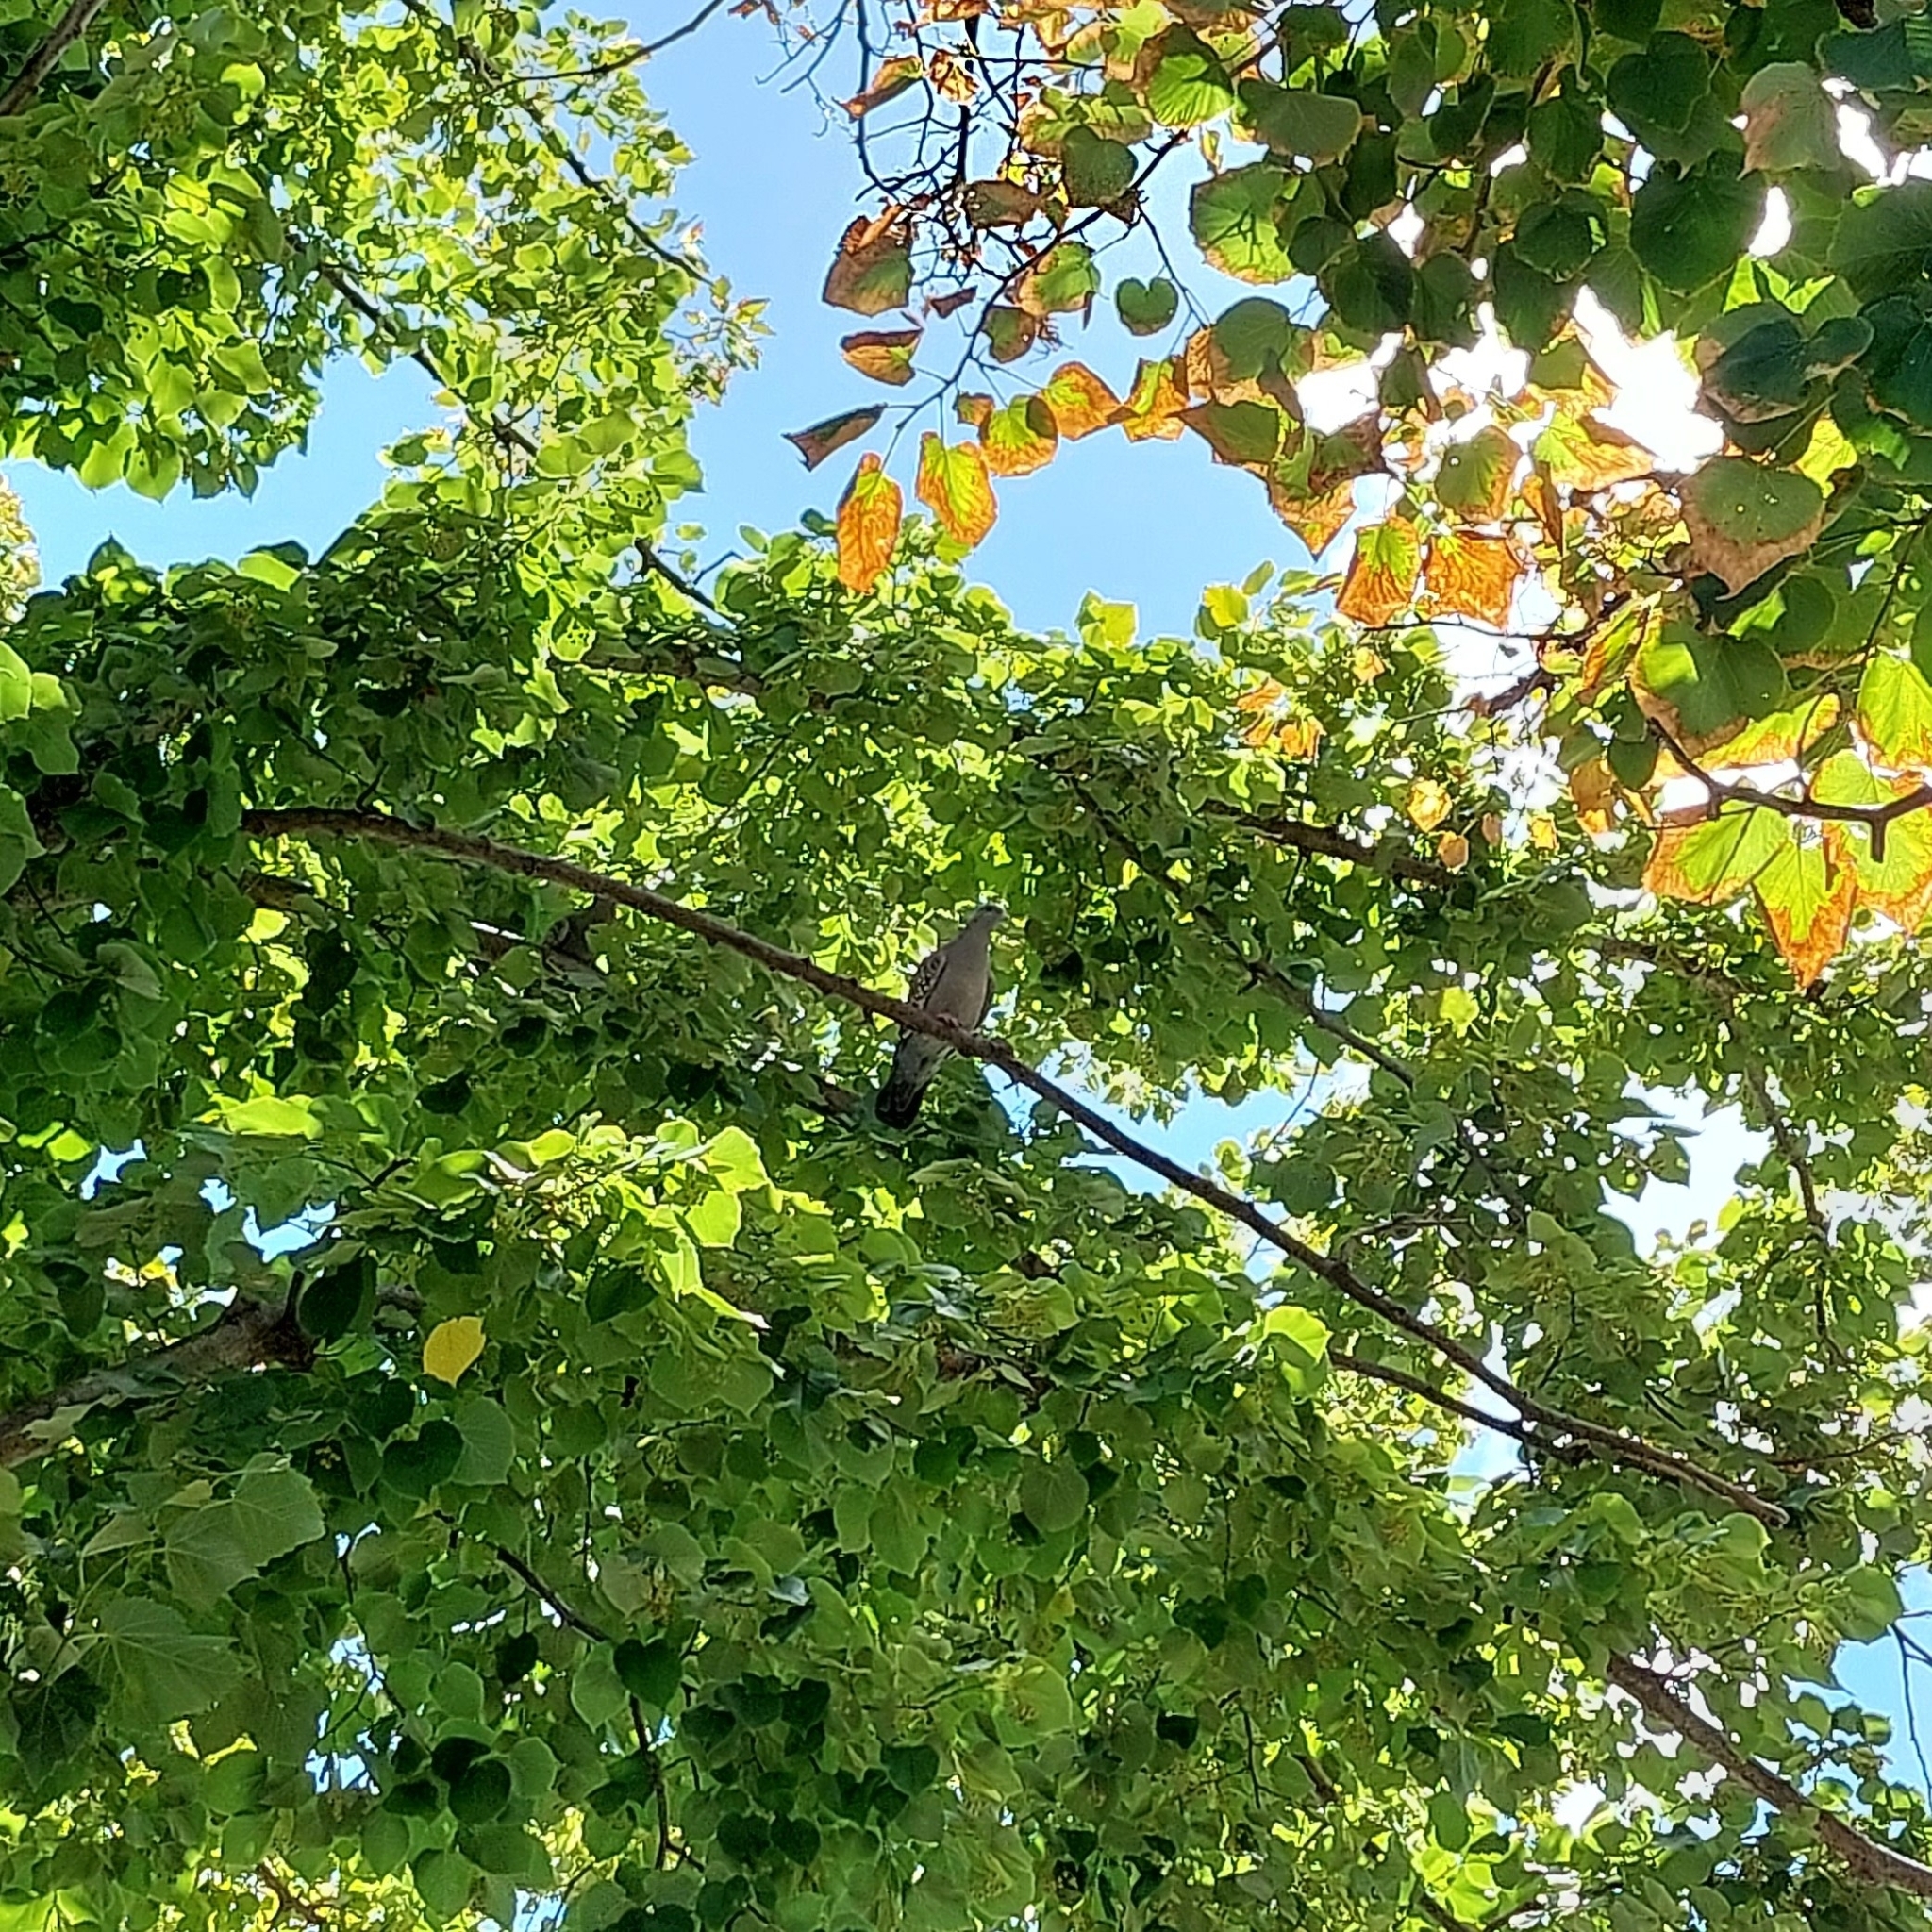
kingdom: Animalia
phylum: Chordata
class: Aves
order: Columbiformes
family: Columbidae
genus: Patagioenas
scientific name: Patagioenas maculosa
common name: Spot-winged pigeon
